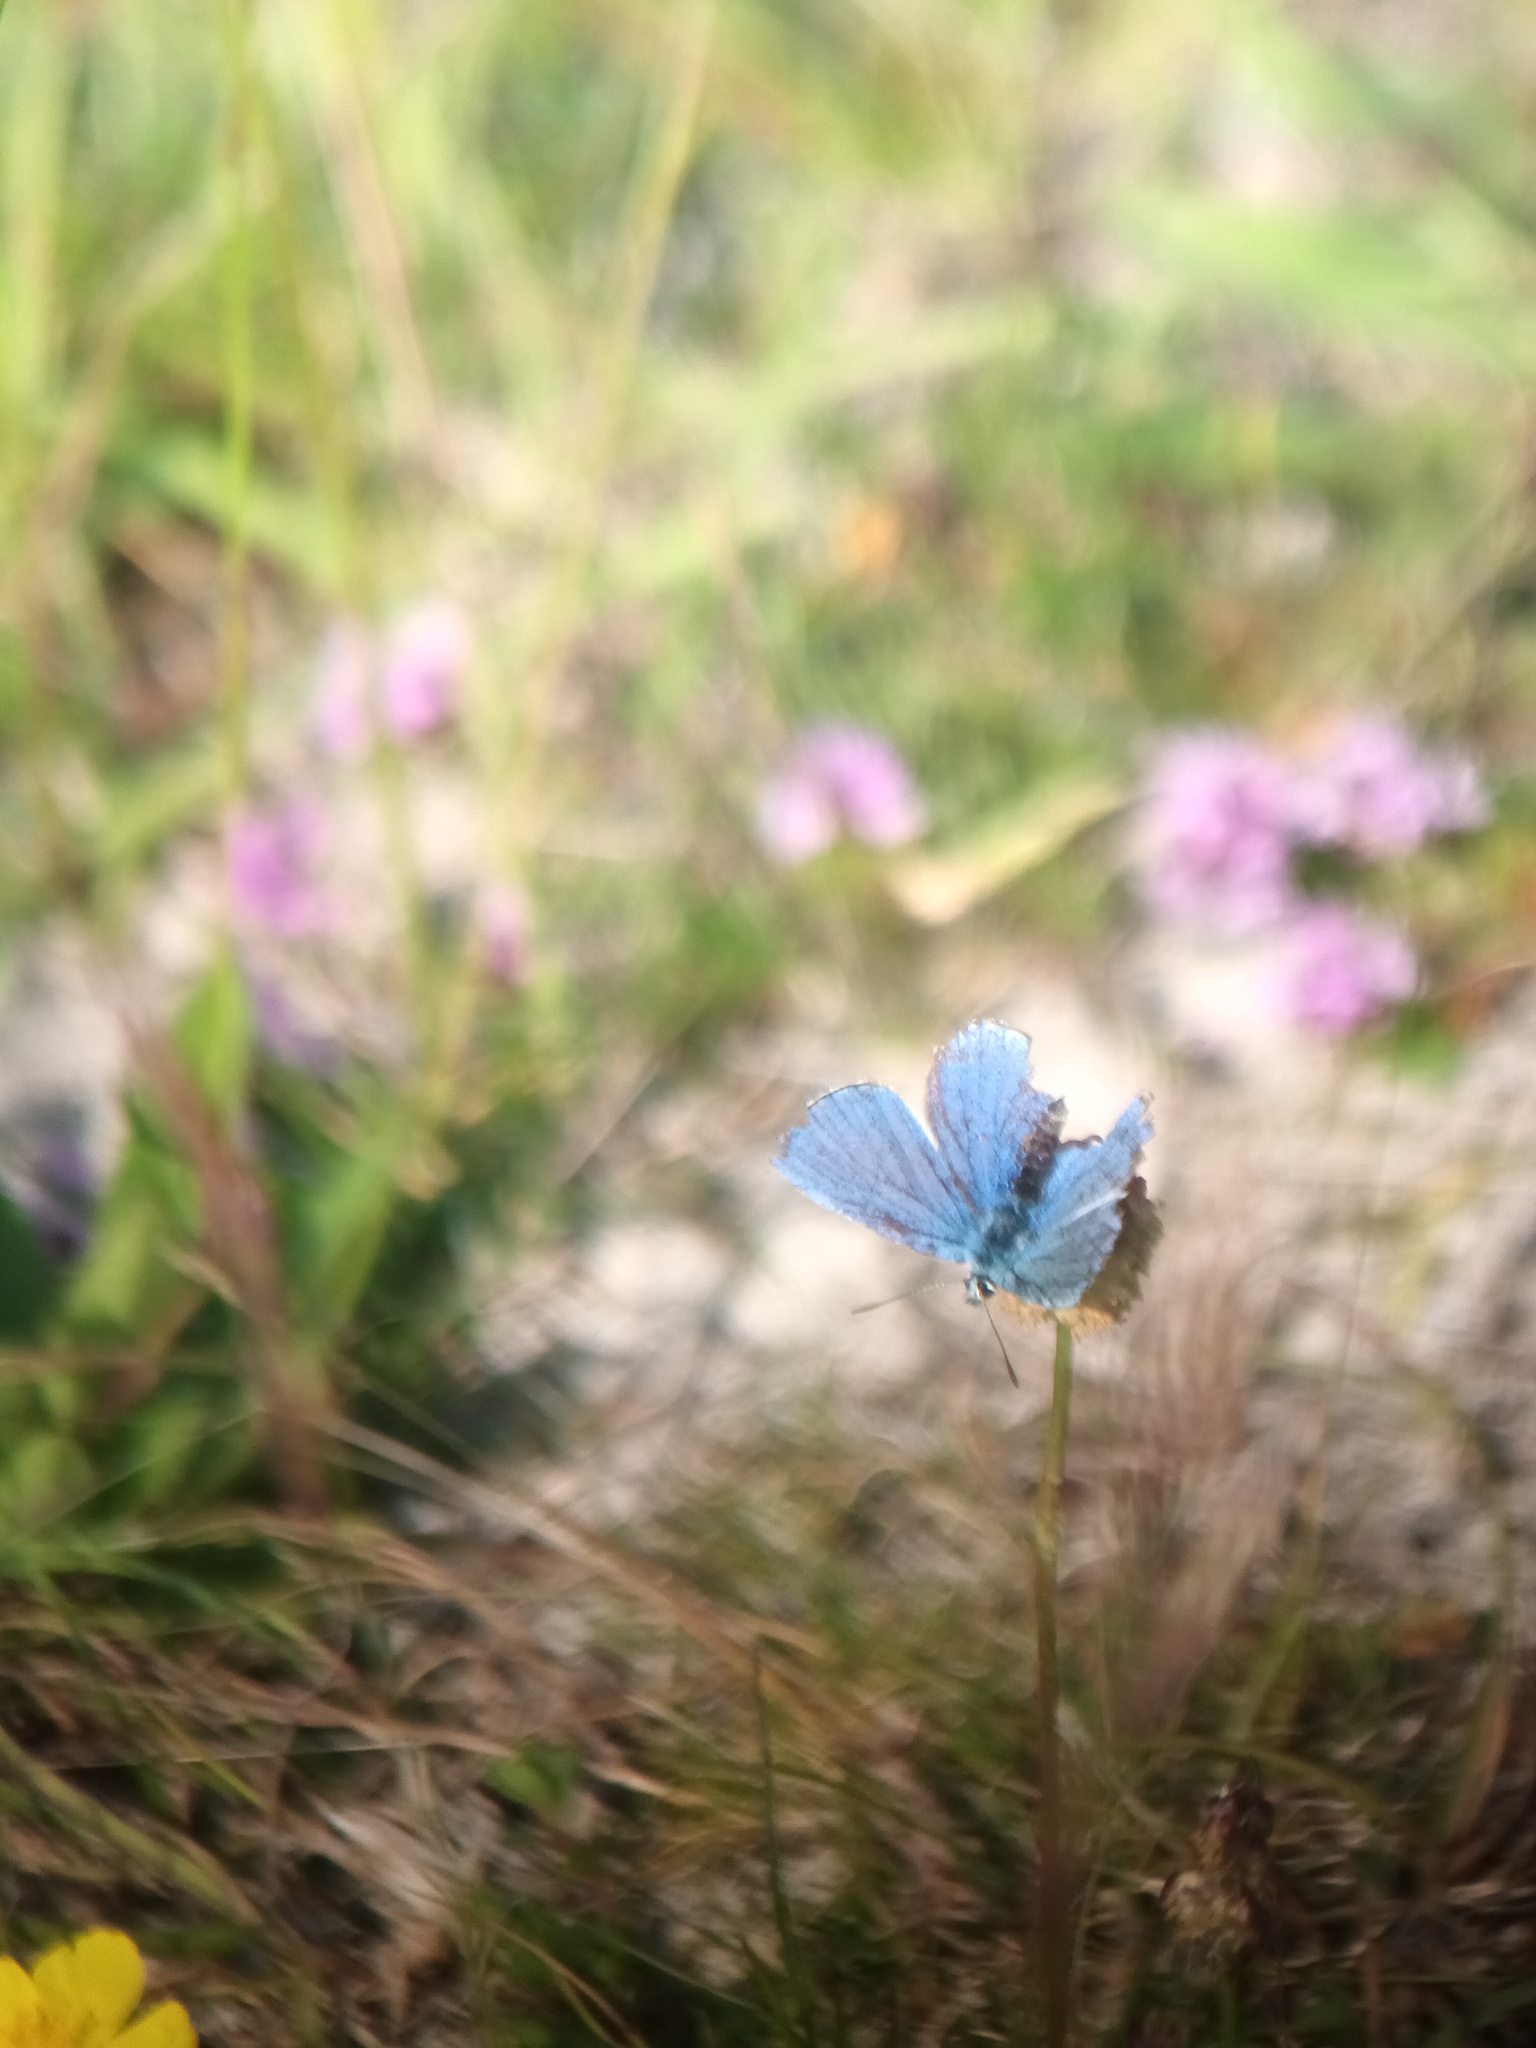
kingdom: Animalia
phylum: Arthropoda
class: Insecta
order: Lepidoptera
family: Lycaenidae
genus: Lysandra
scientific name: Lysandra bellargus
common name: Adonis blue
